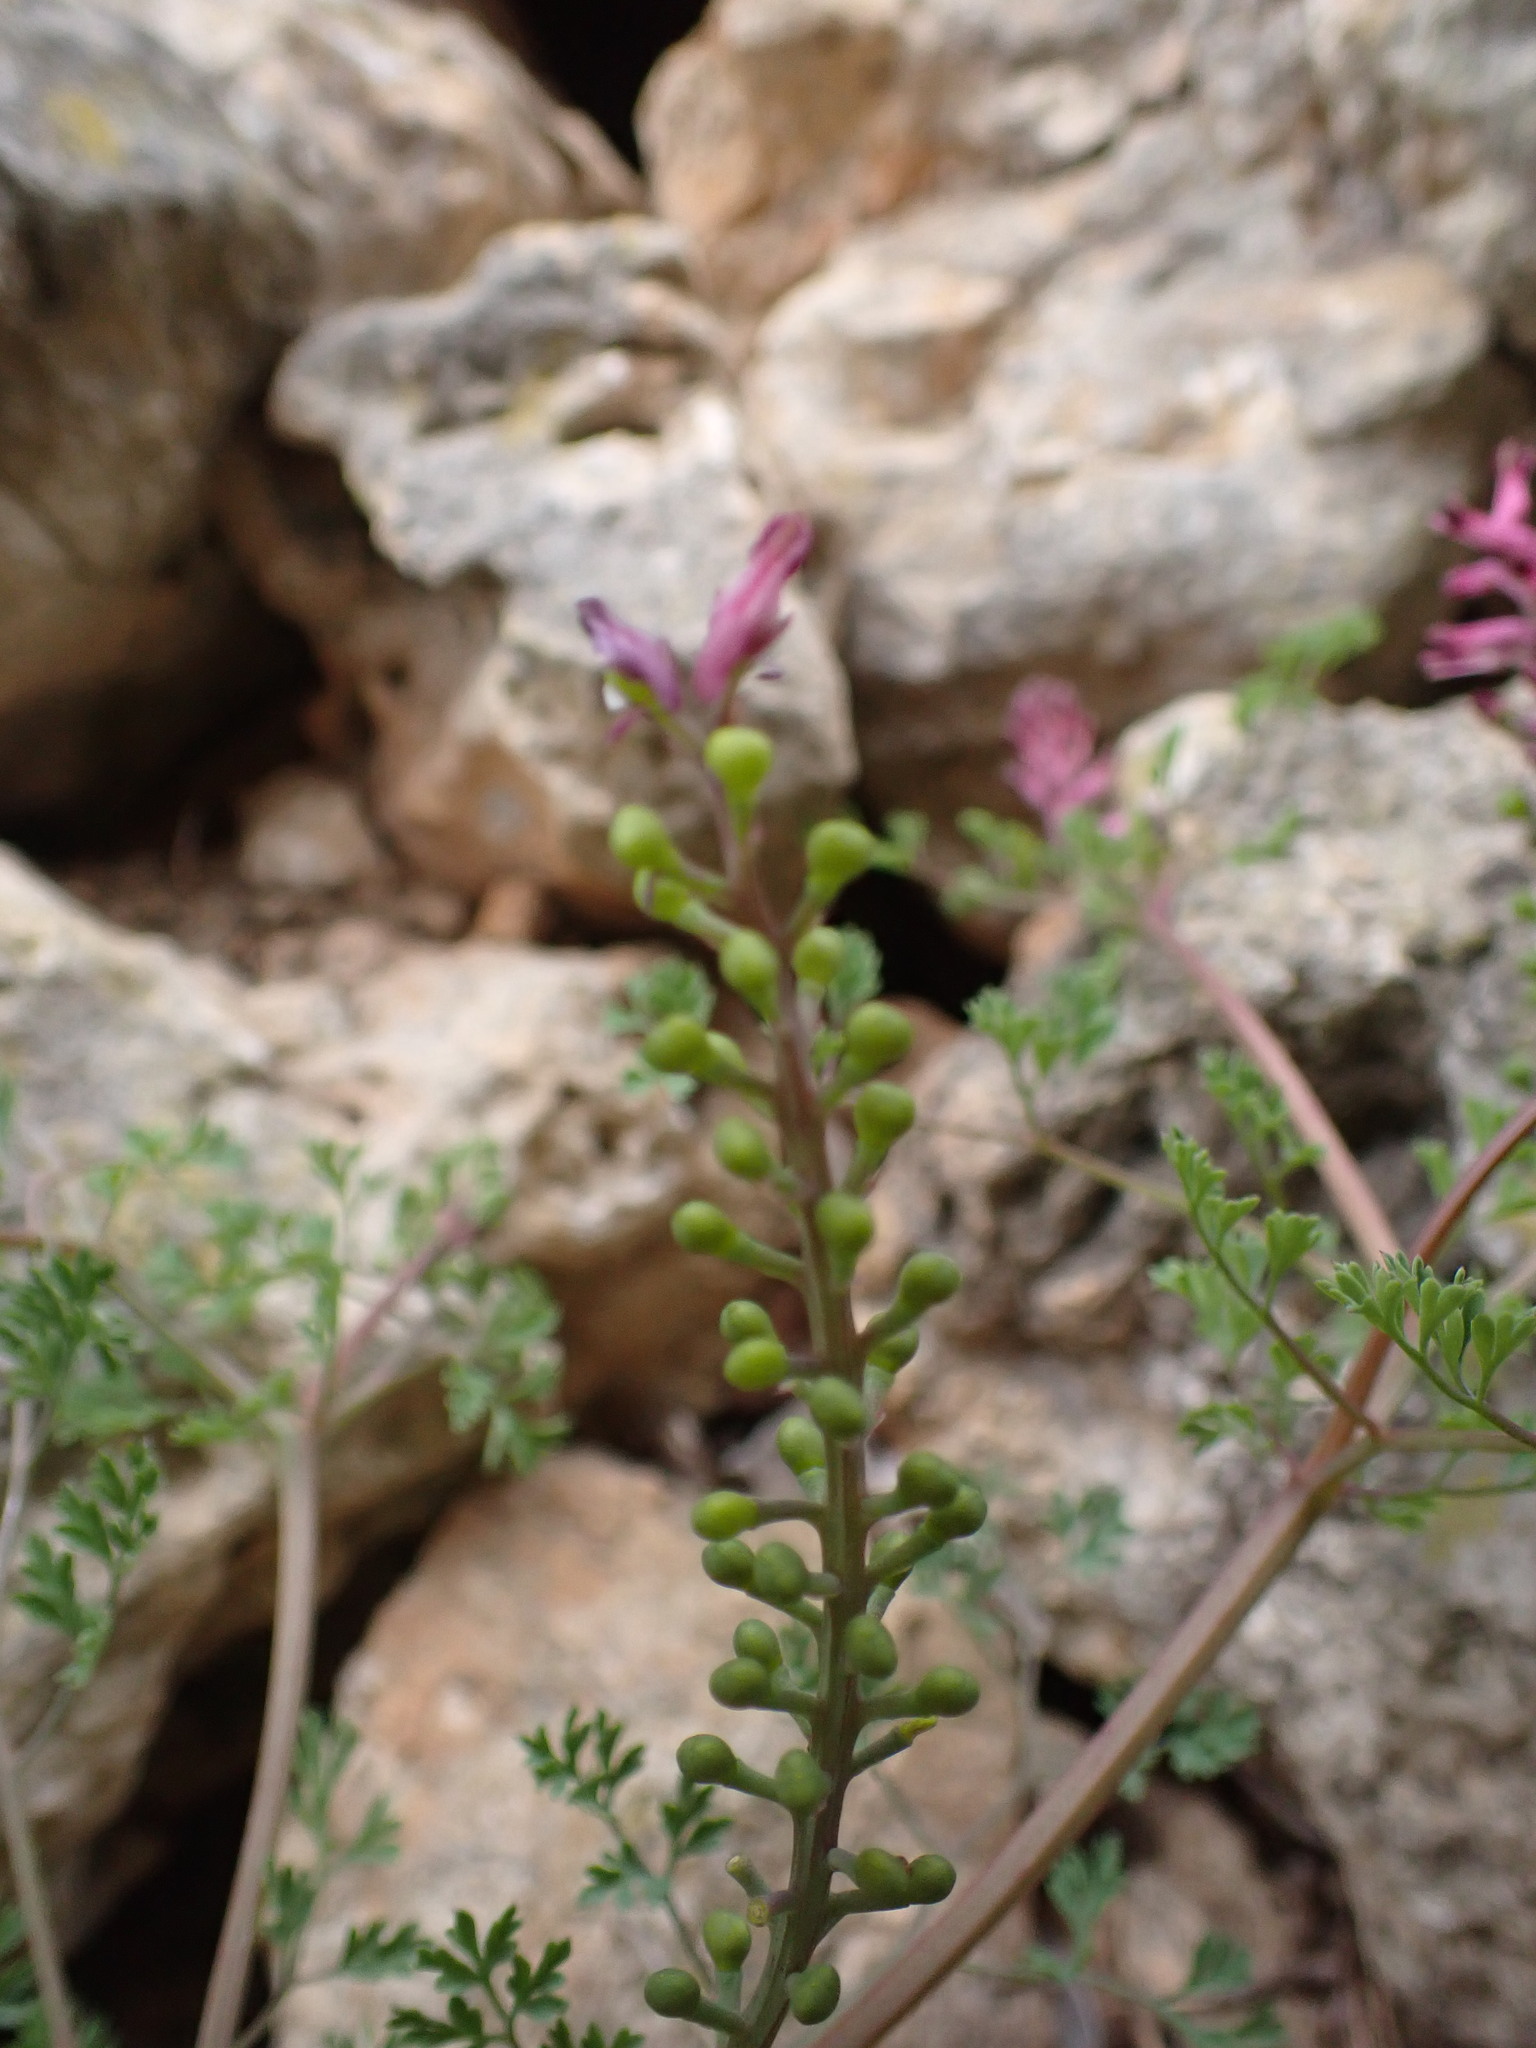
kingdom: Plantae
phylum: Tracheophyta
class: Magnoliopsida
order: Ranunculales
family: Papaveraceae
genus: Fumaria
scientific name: Fumaria officinalis
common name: Common fumitory
